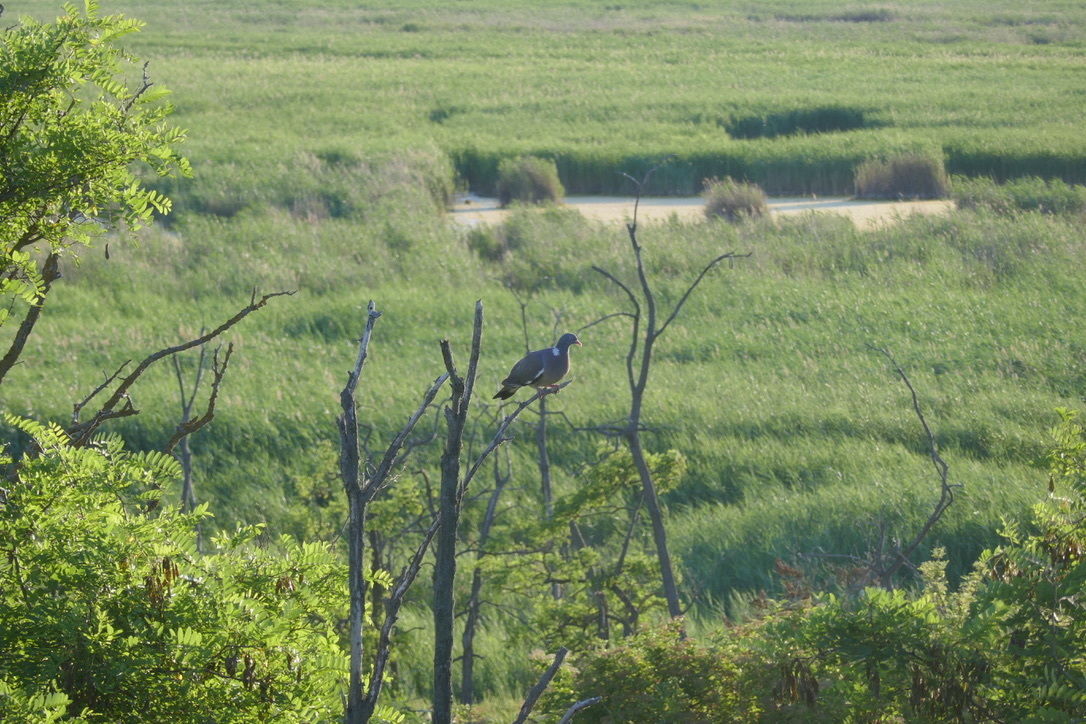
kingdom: Animalia
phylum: Chordata
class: Aves
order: Columbiformes
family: Columbidae
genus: Columba
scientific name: Columba palumbus
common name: Common wood pigeon
